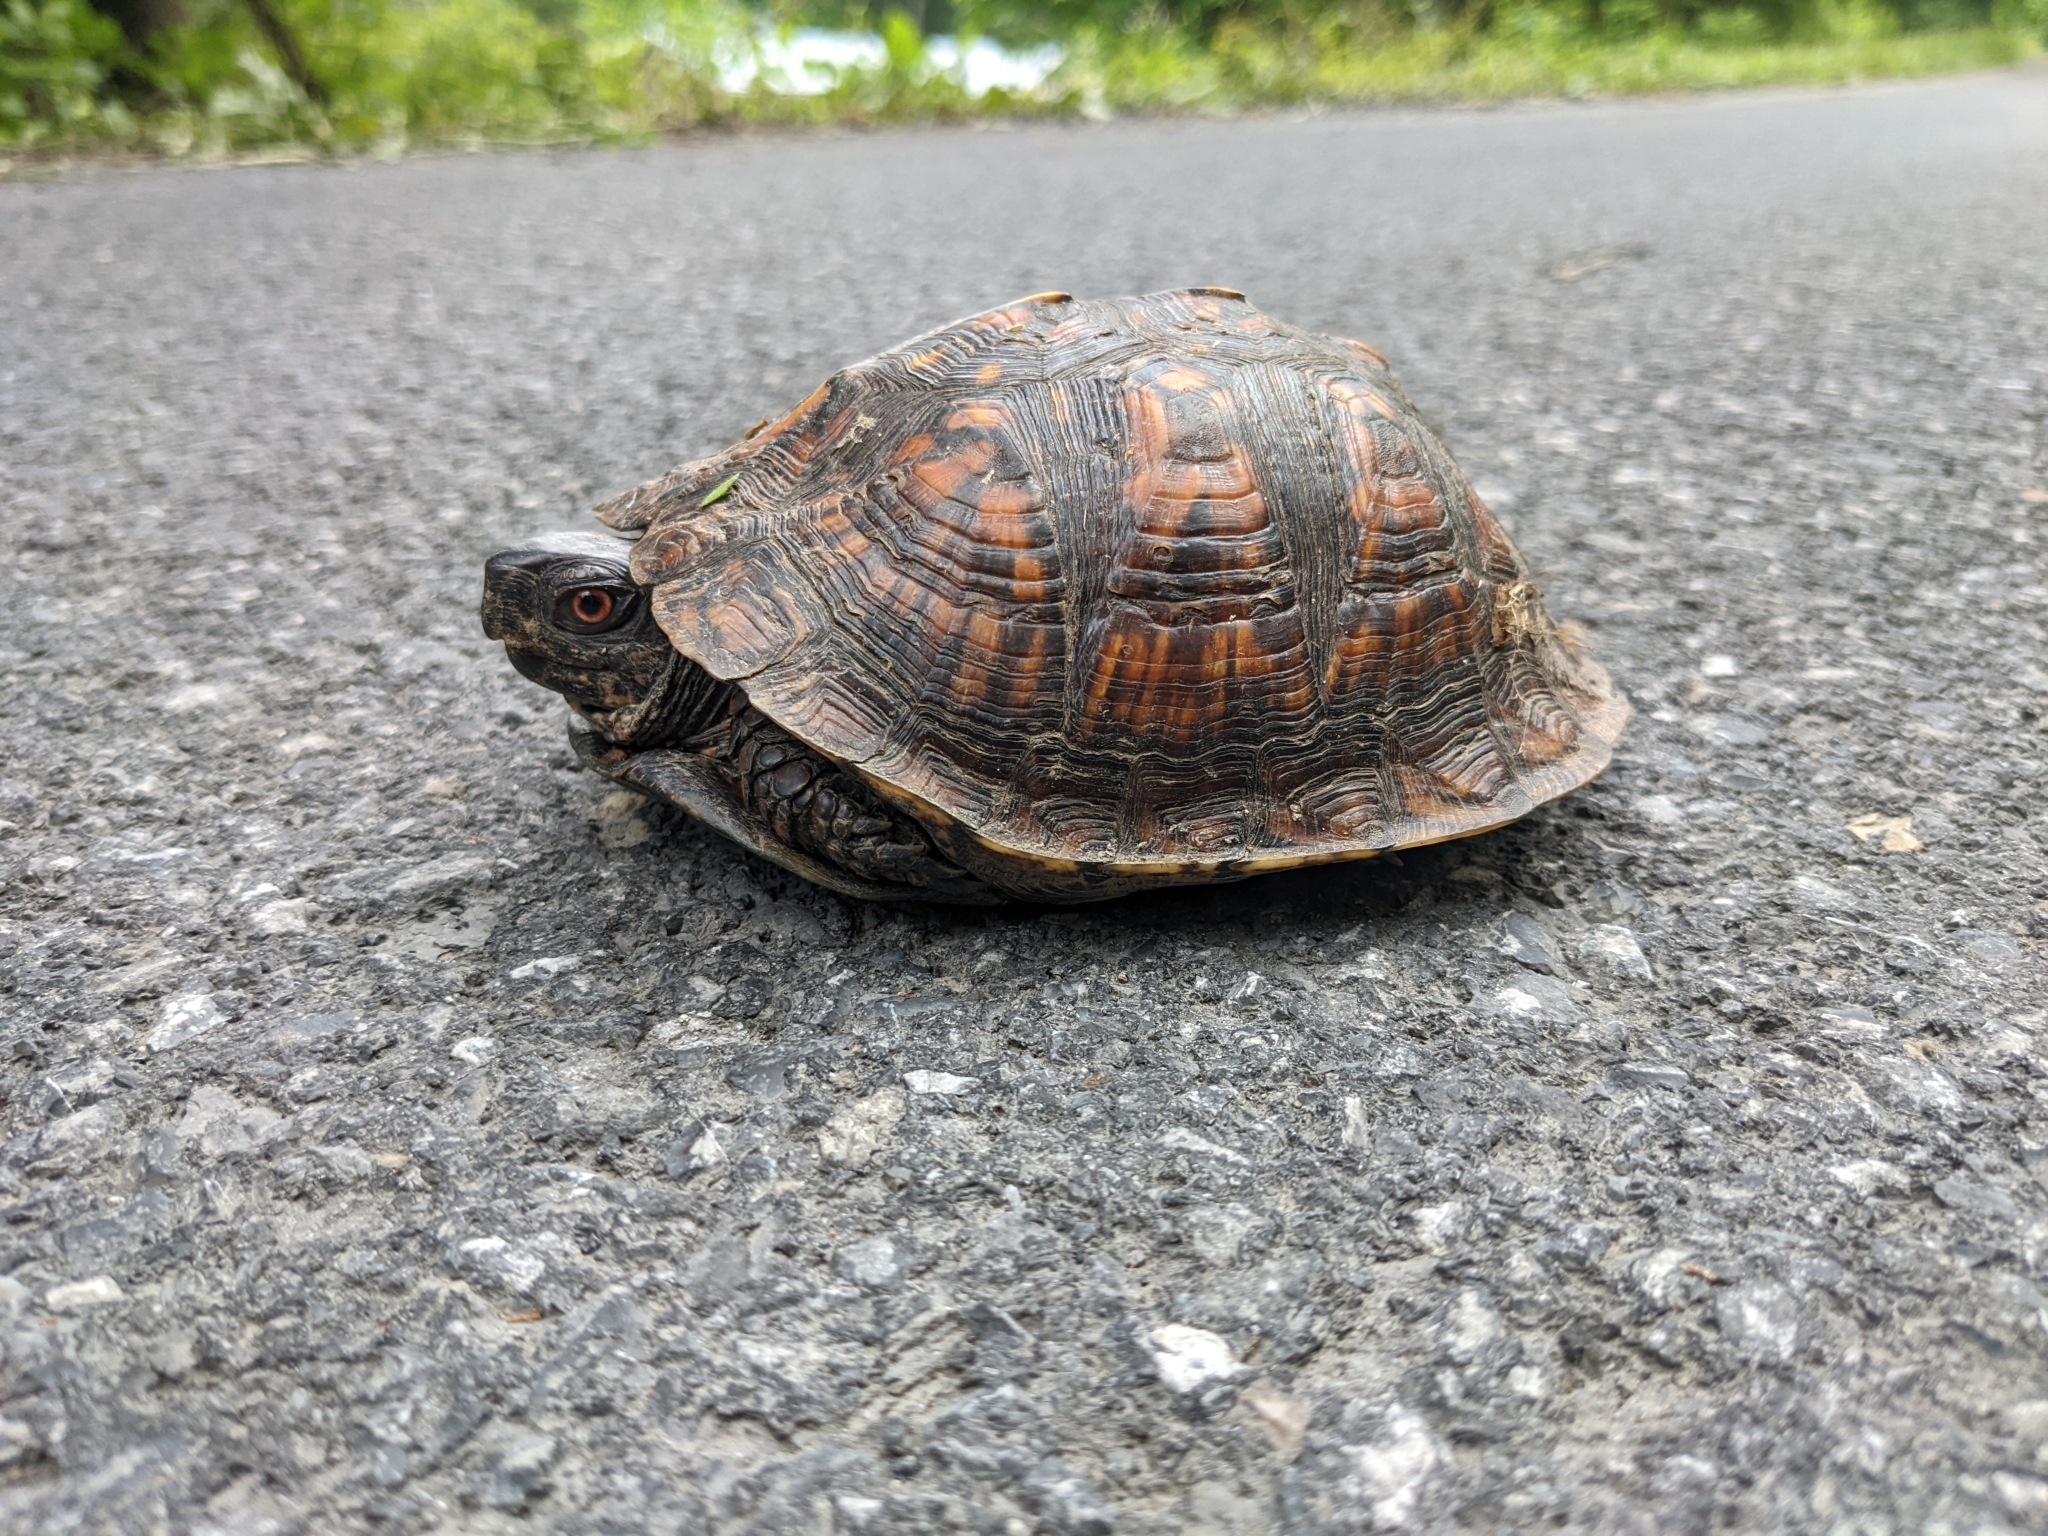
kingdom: Animalia
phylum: Chordata
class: Testudines
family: Emydidae
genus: Terrapene
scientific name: Terrapene carolina
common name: Common box turtle
